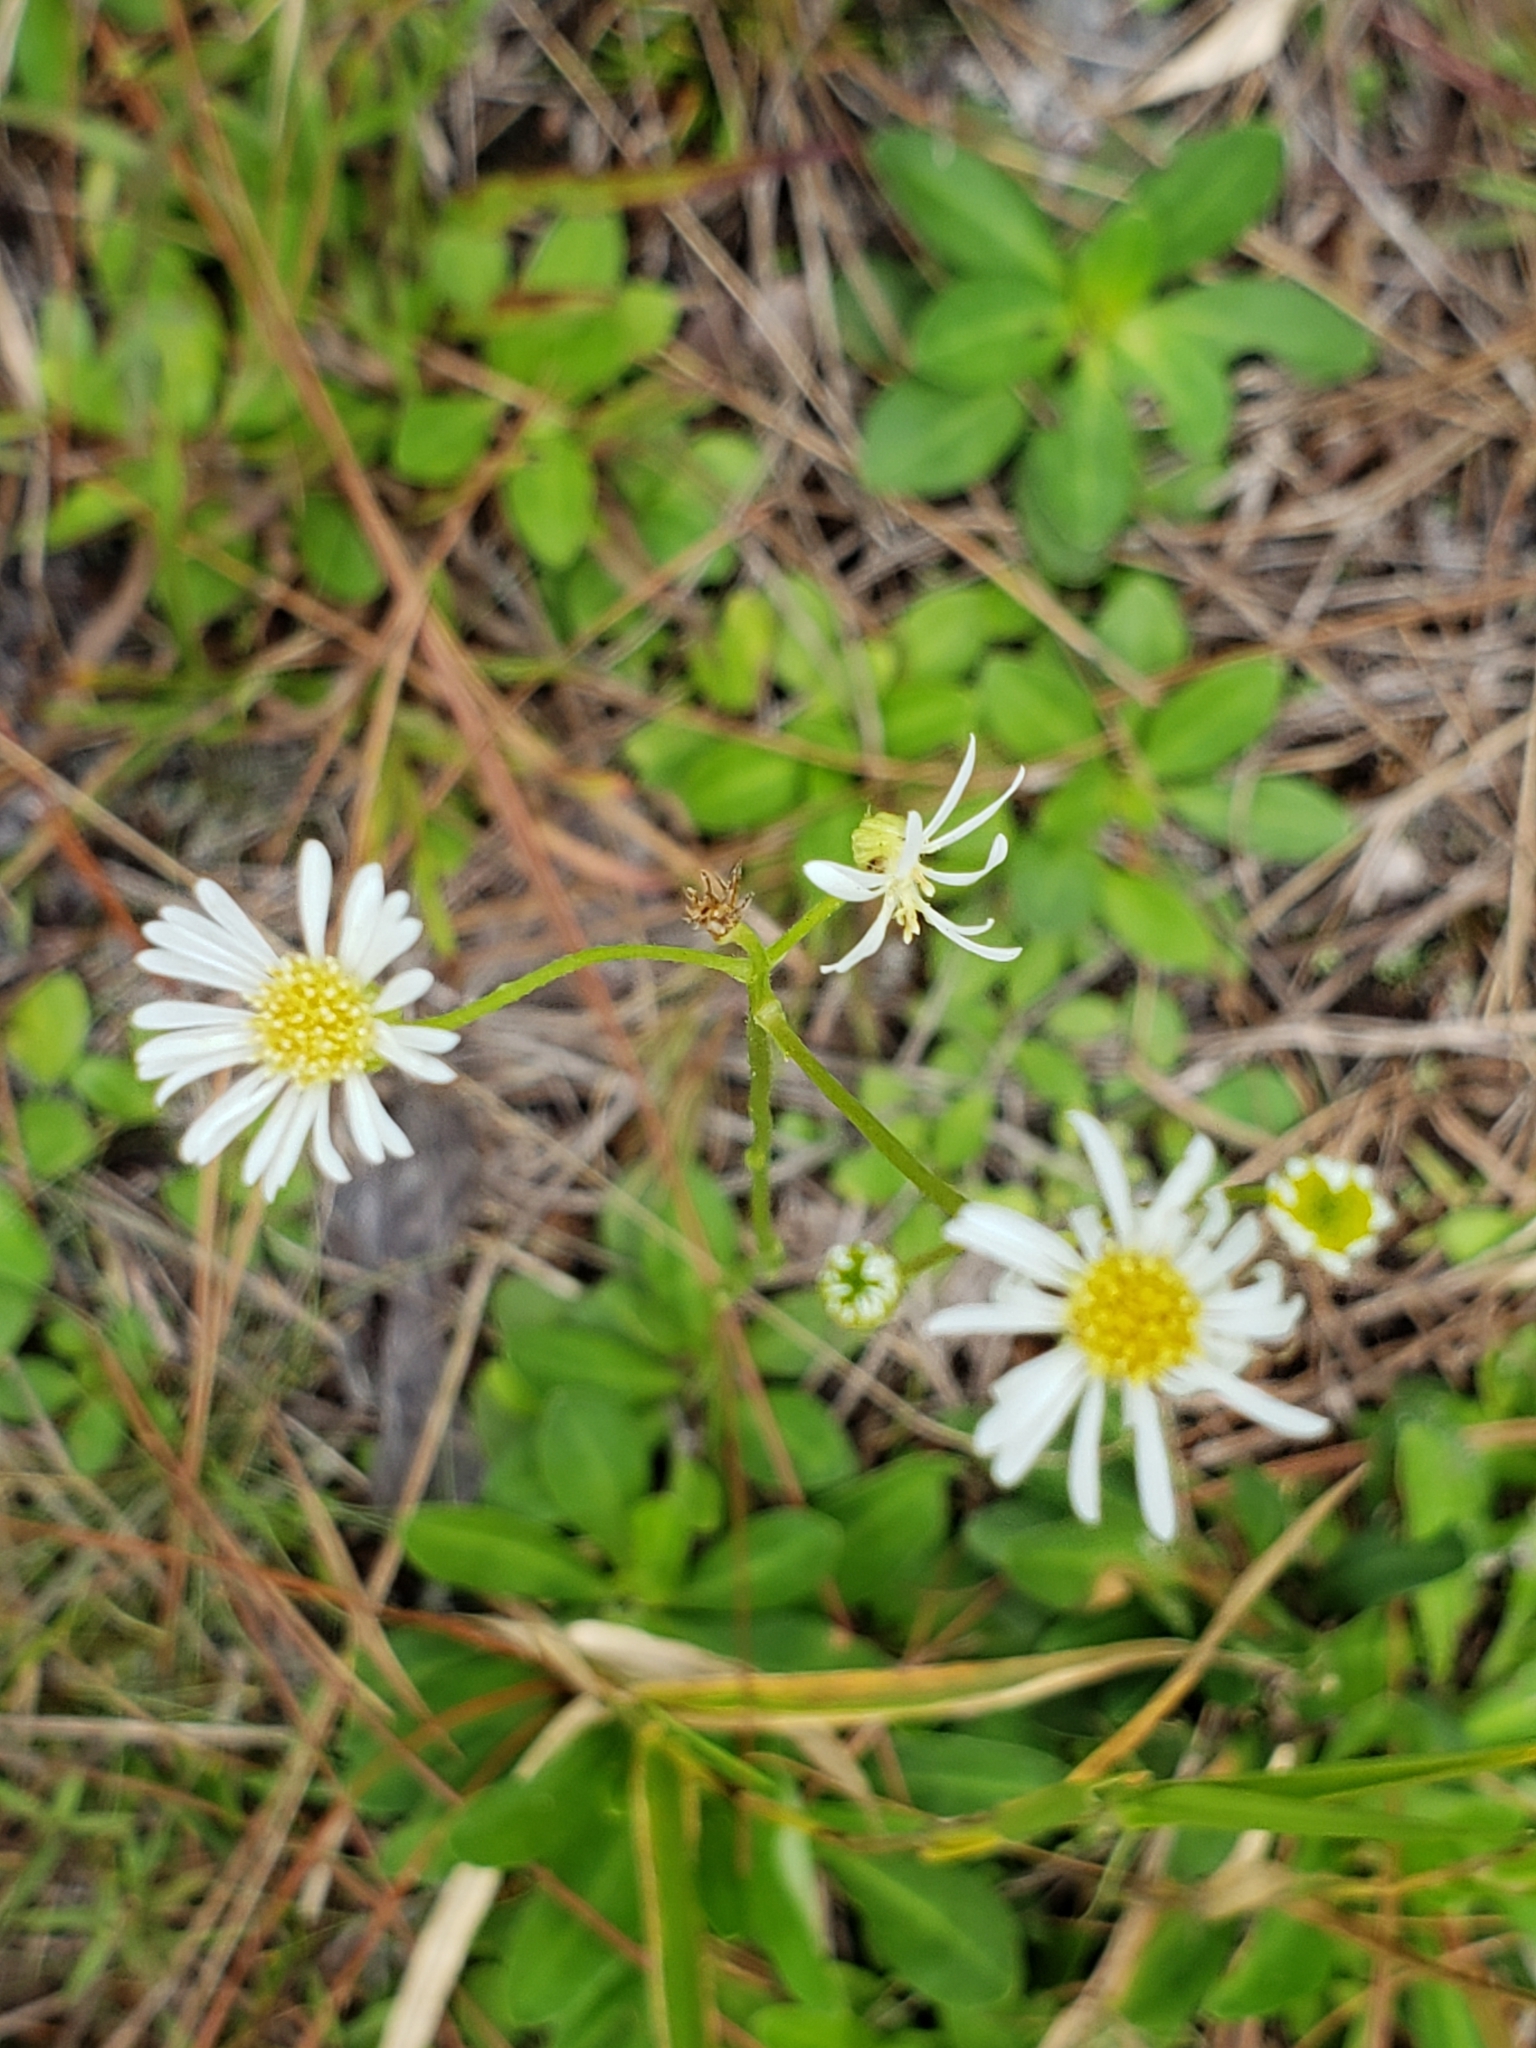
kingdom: Plantae
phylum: Tracheophyta
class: Magnoliopsida
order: Asterales
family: Asteraceae
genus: Erigeron
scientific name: Erigeron vernus
